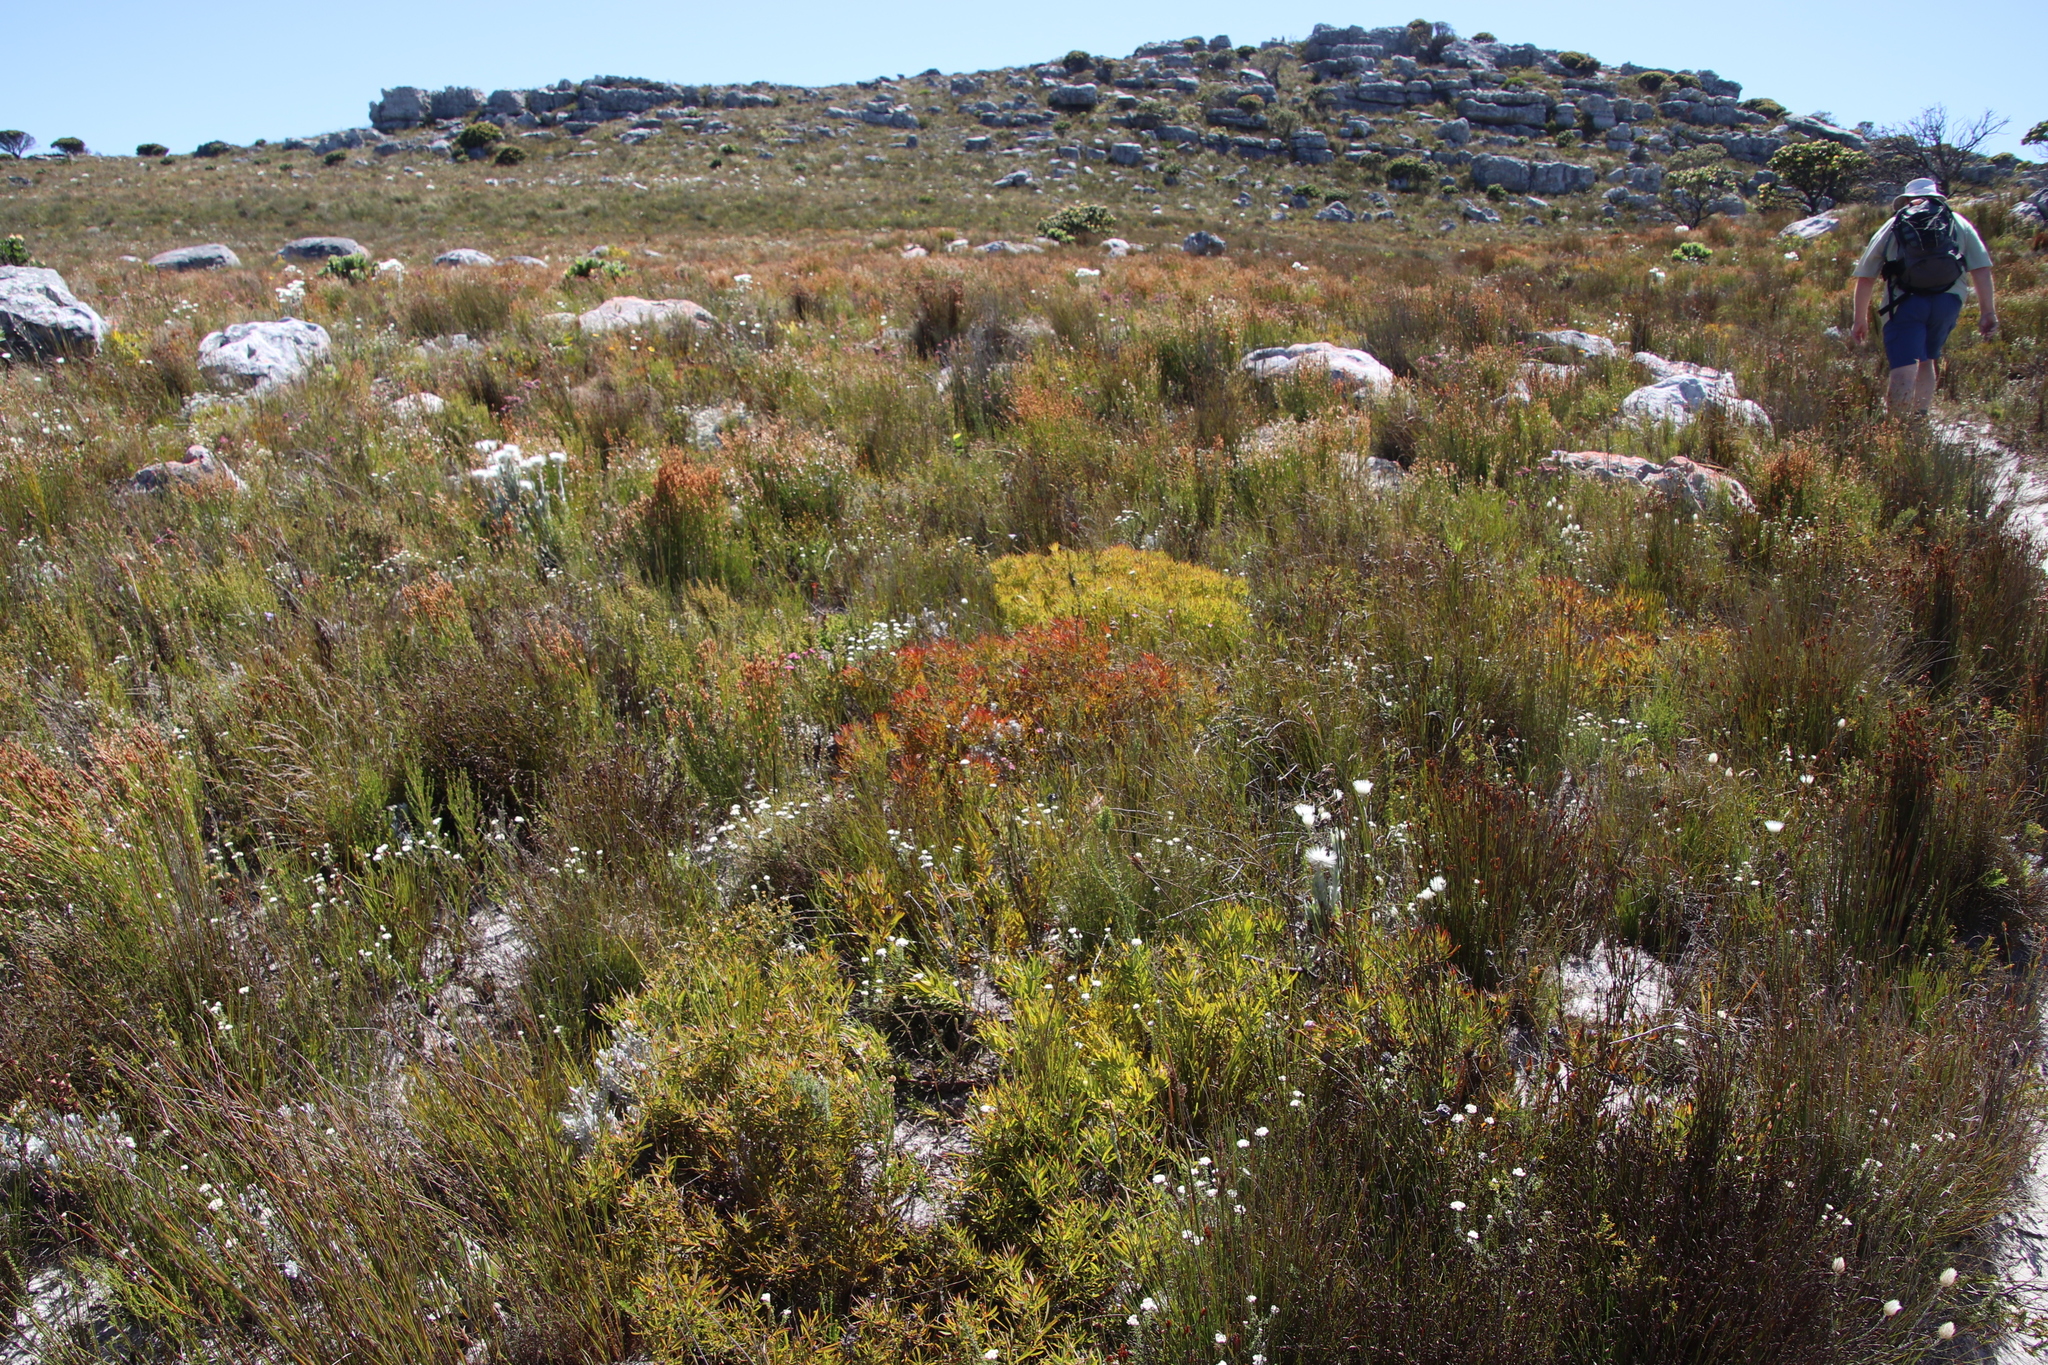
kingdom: Plantae
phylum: Tracheophyta
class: Magnoliopsida
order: Proteales
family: Proteaceae
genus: Leucadendron
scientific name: Leucadendron salignum
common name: Common sunshine conebush
